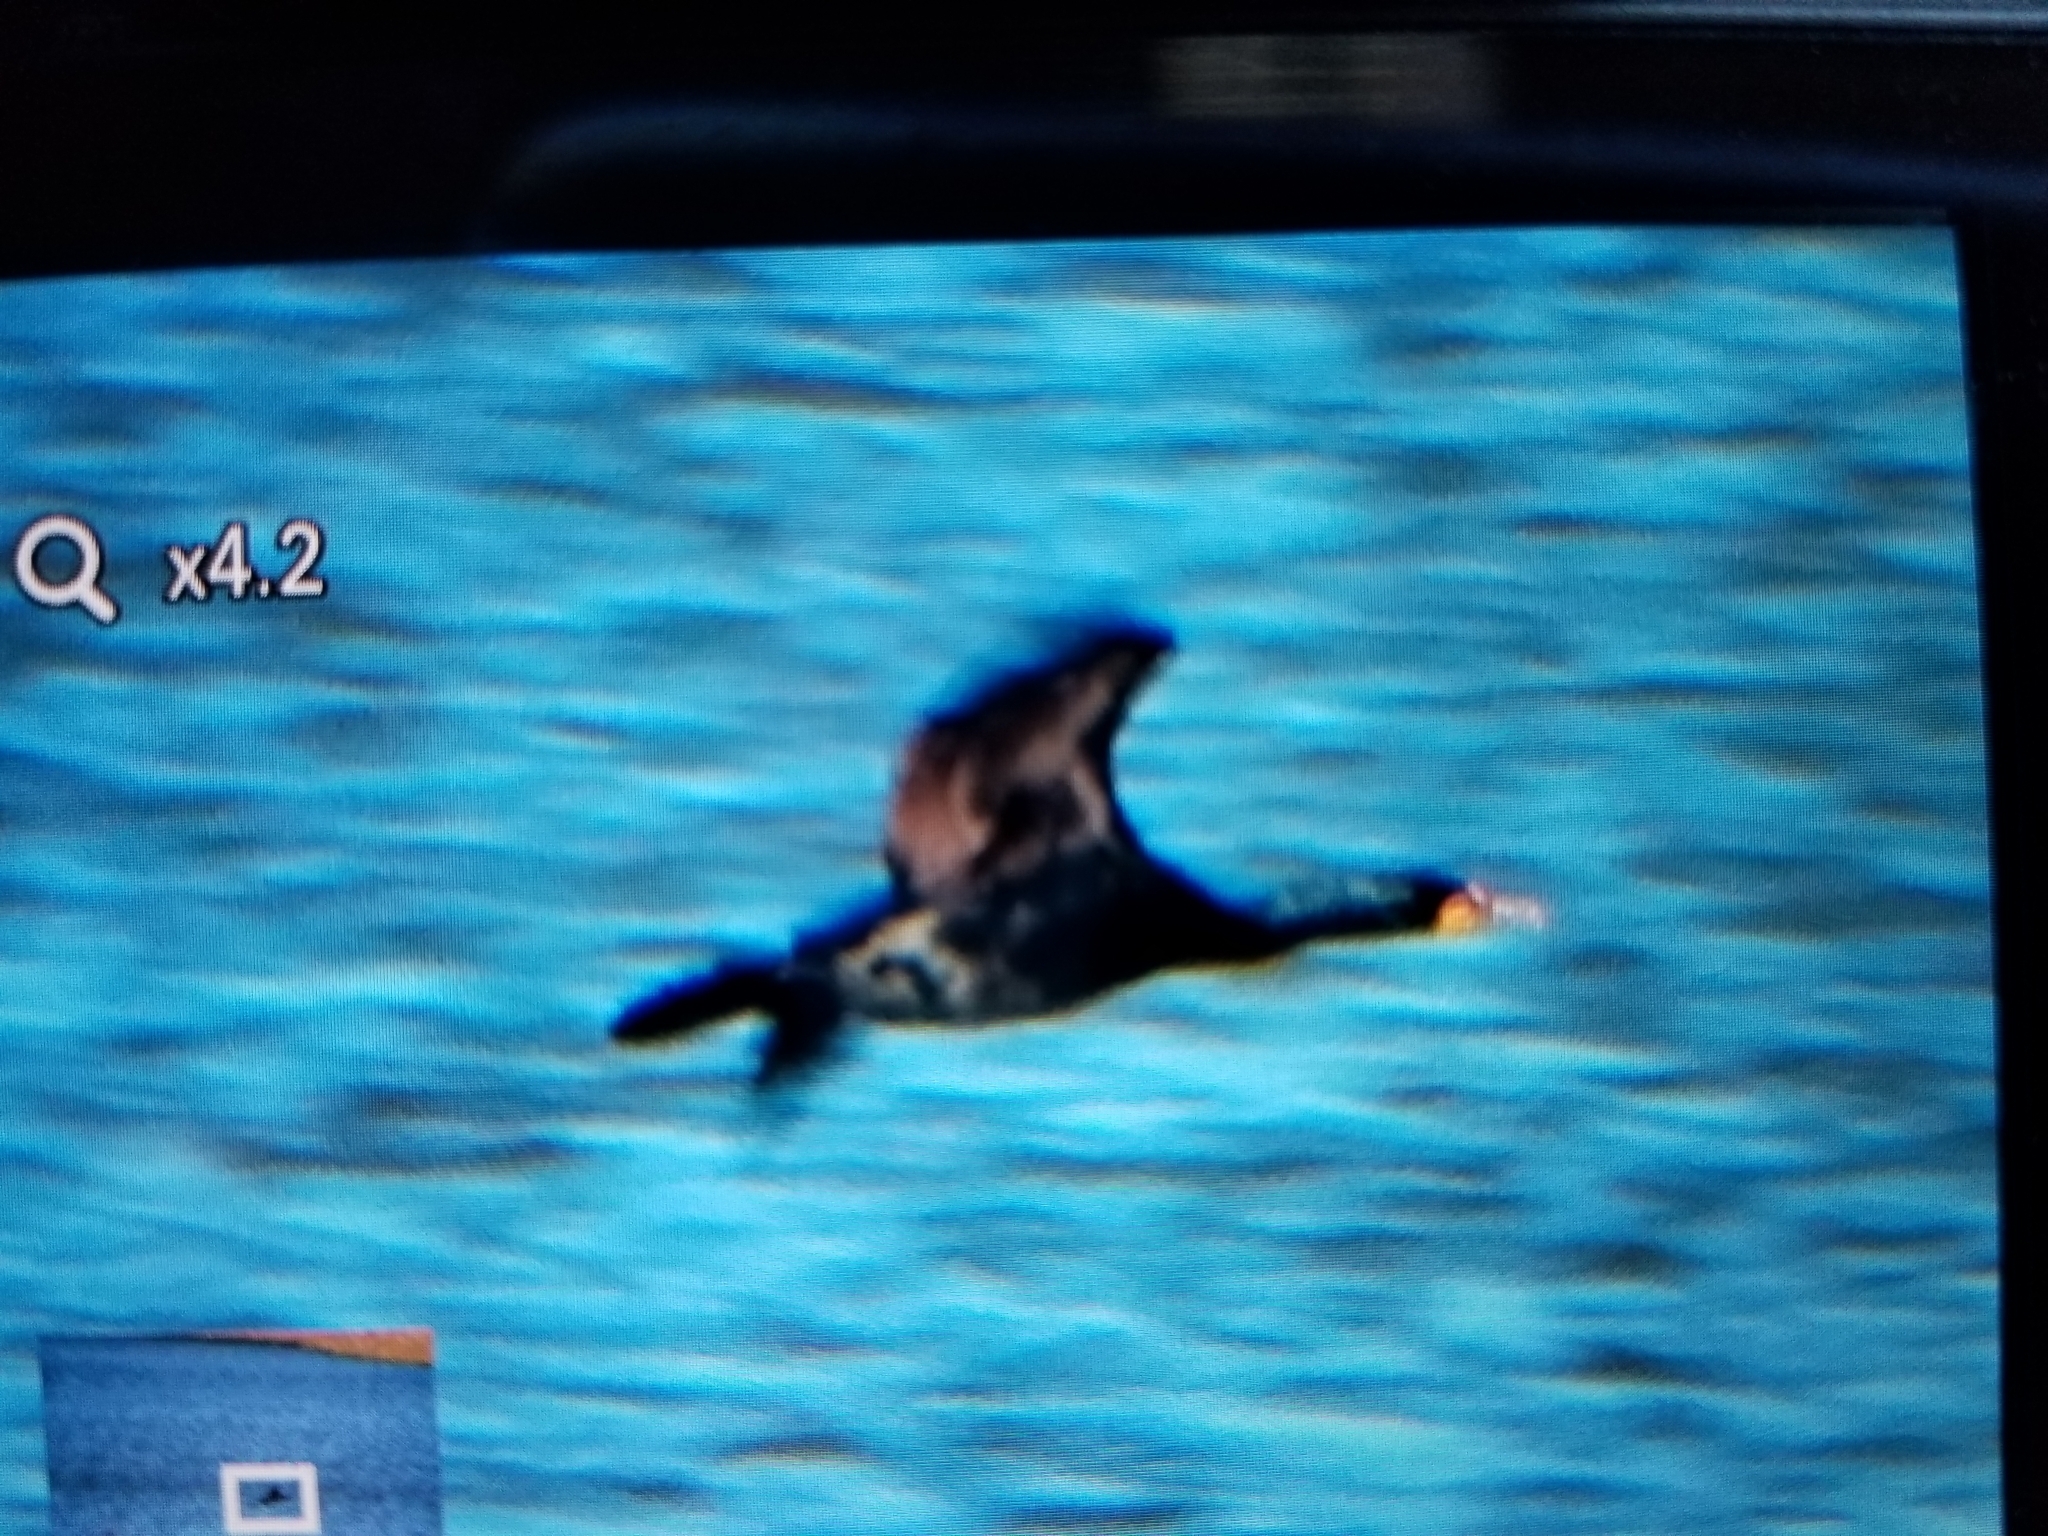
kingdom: Animalia
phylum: Chordata
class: Aves
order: Suliformes
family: Phalacrocoracidae
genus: Phalacrocorax
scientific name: Phalacrocorax auritus
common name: Double-crested cormorant
